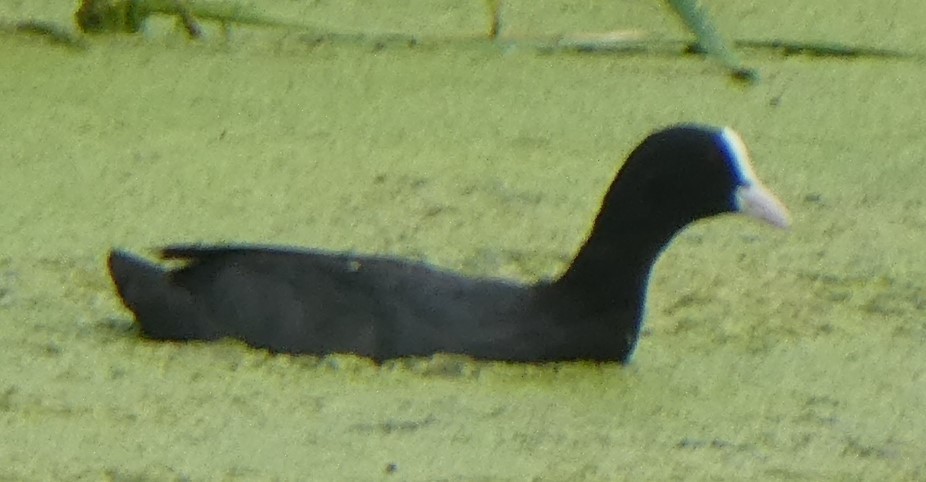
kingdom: Animalia
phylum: Chordata
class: Aves
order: Gruiformes
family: Rallidae
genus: Fulica
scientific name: Fulica atra
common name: Eurasian coot
